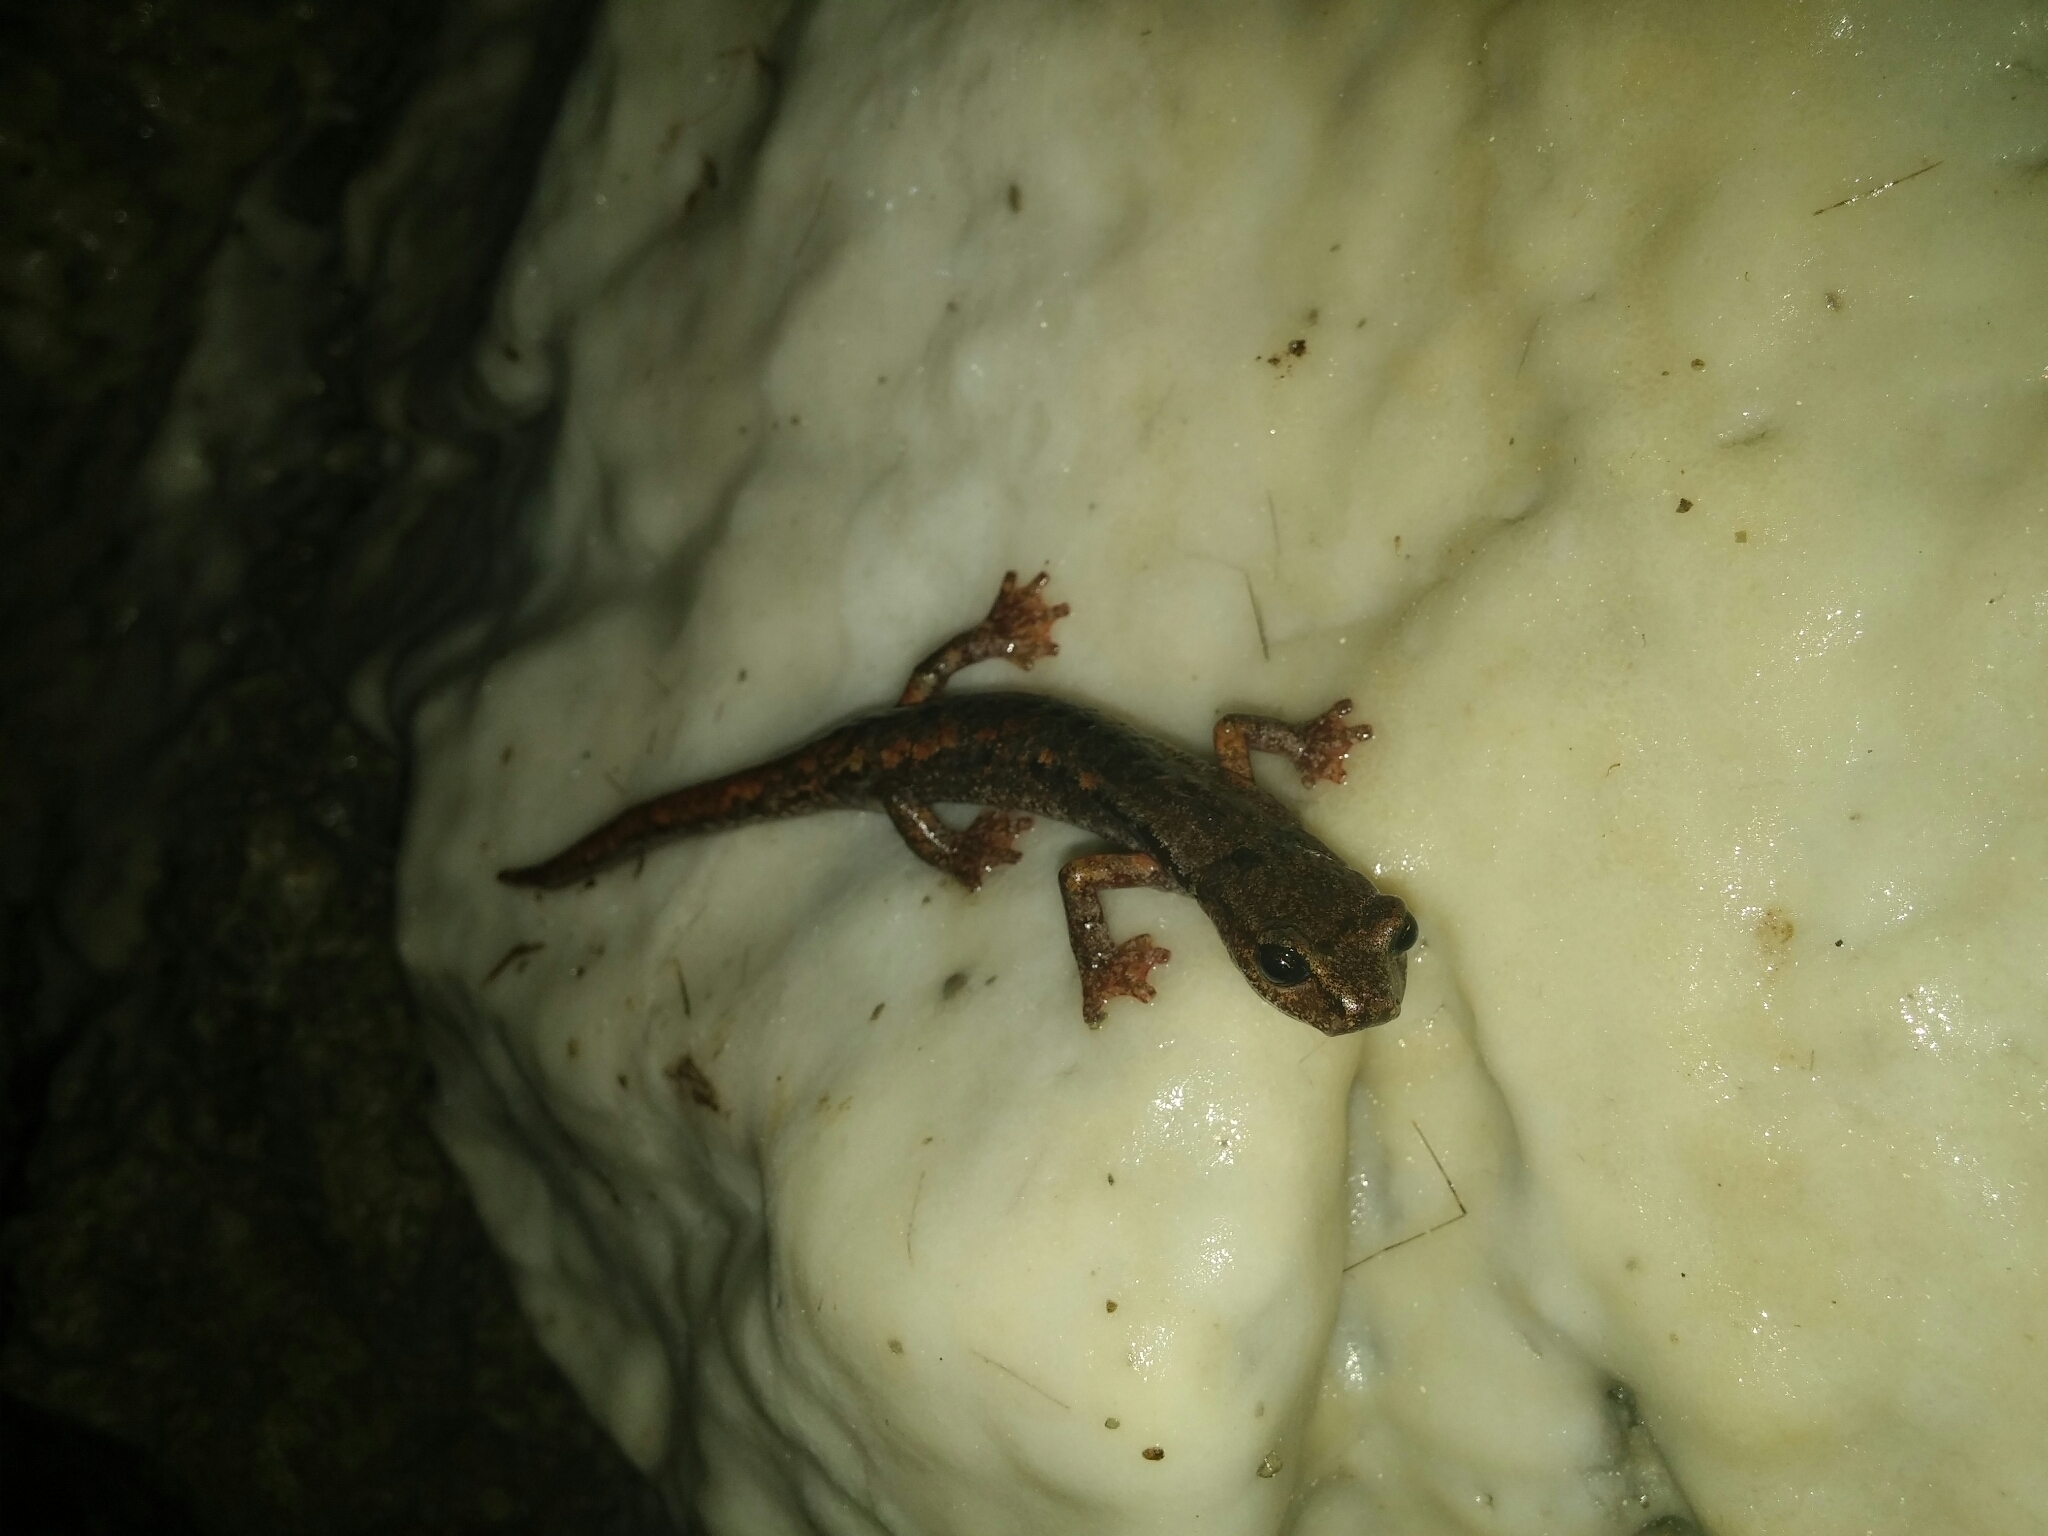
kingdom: Animalia
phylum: Chordata
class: Amphibia
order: Caudata
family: Plethodontidae
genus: Speleomantes
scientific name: Speleomantes italicus
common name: Italian cave salamander
